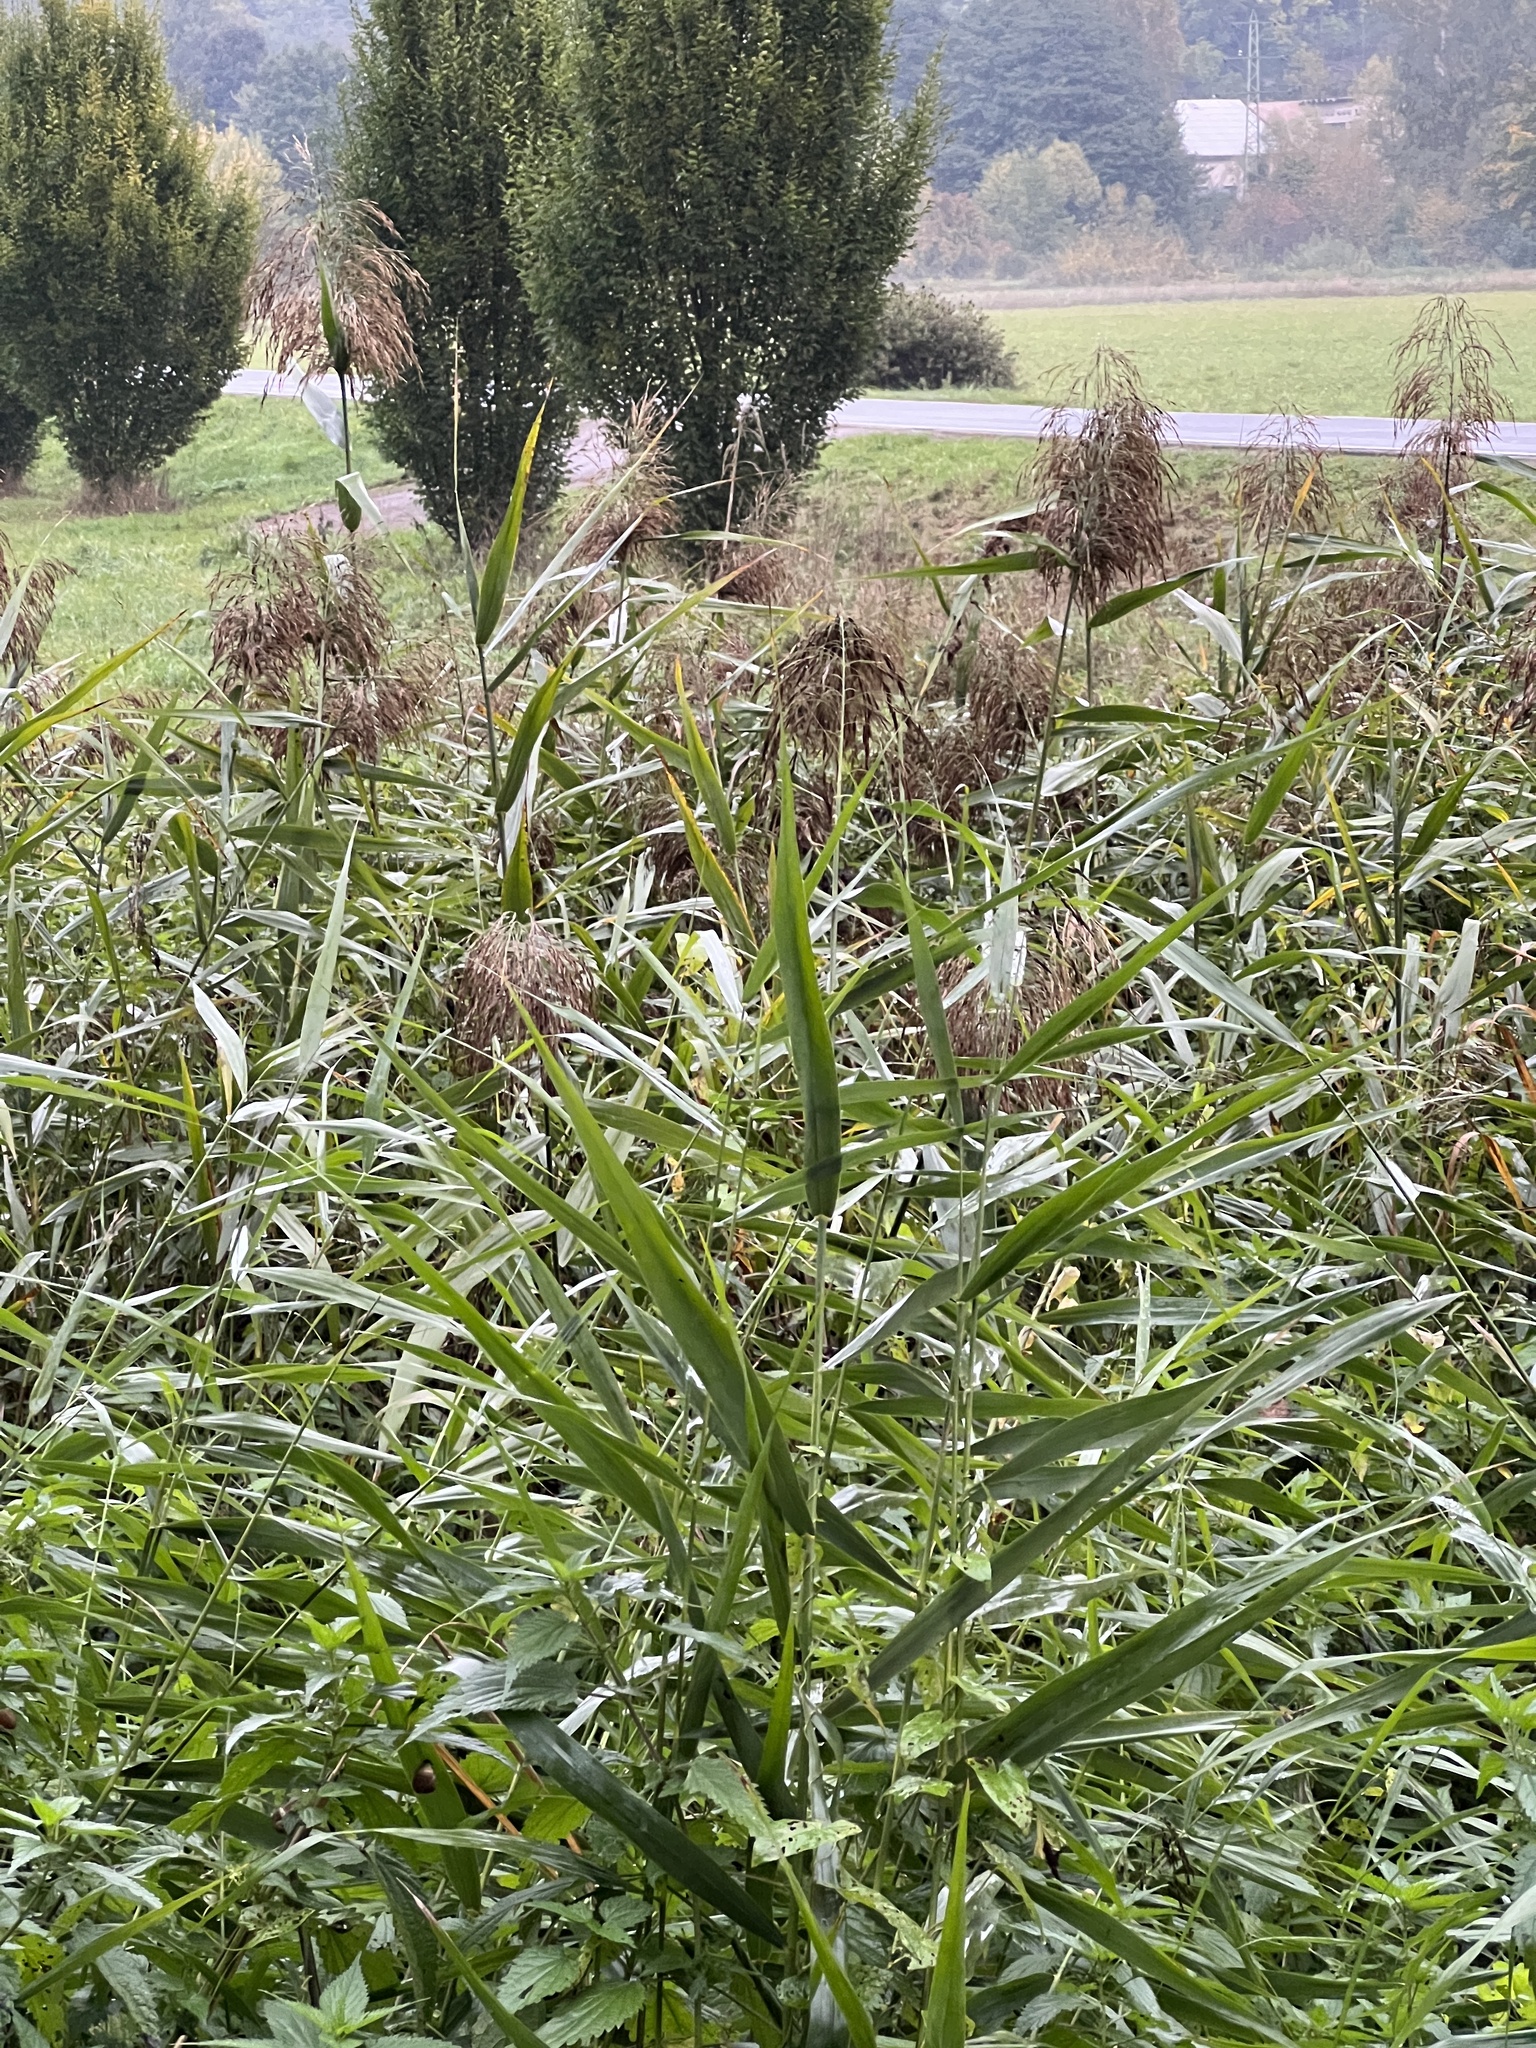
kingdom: Plantae
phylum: Tracheophyta
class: Liliopsida
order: Poales
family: Poaceae
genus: Phragmites
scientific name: Phragmites australis
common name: Common reed
